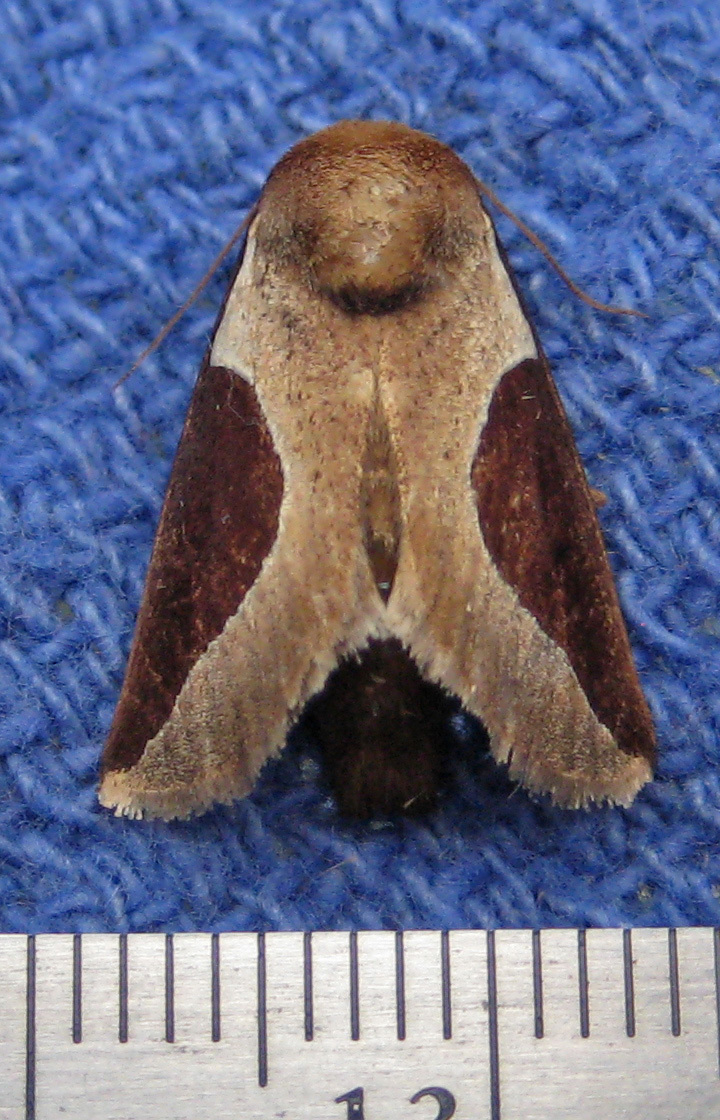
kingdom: Animalia
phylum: Arthropoda
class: Insecta
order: Lepidoptera
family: Limacodidae
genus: Prolimacodes
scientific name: Prolimacodes badia
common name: Skiff moth
